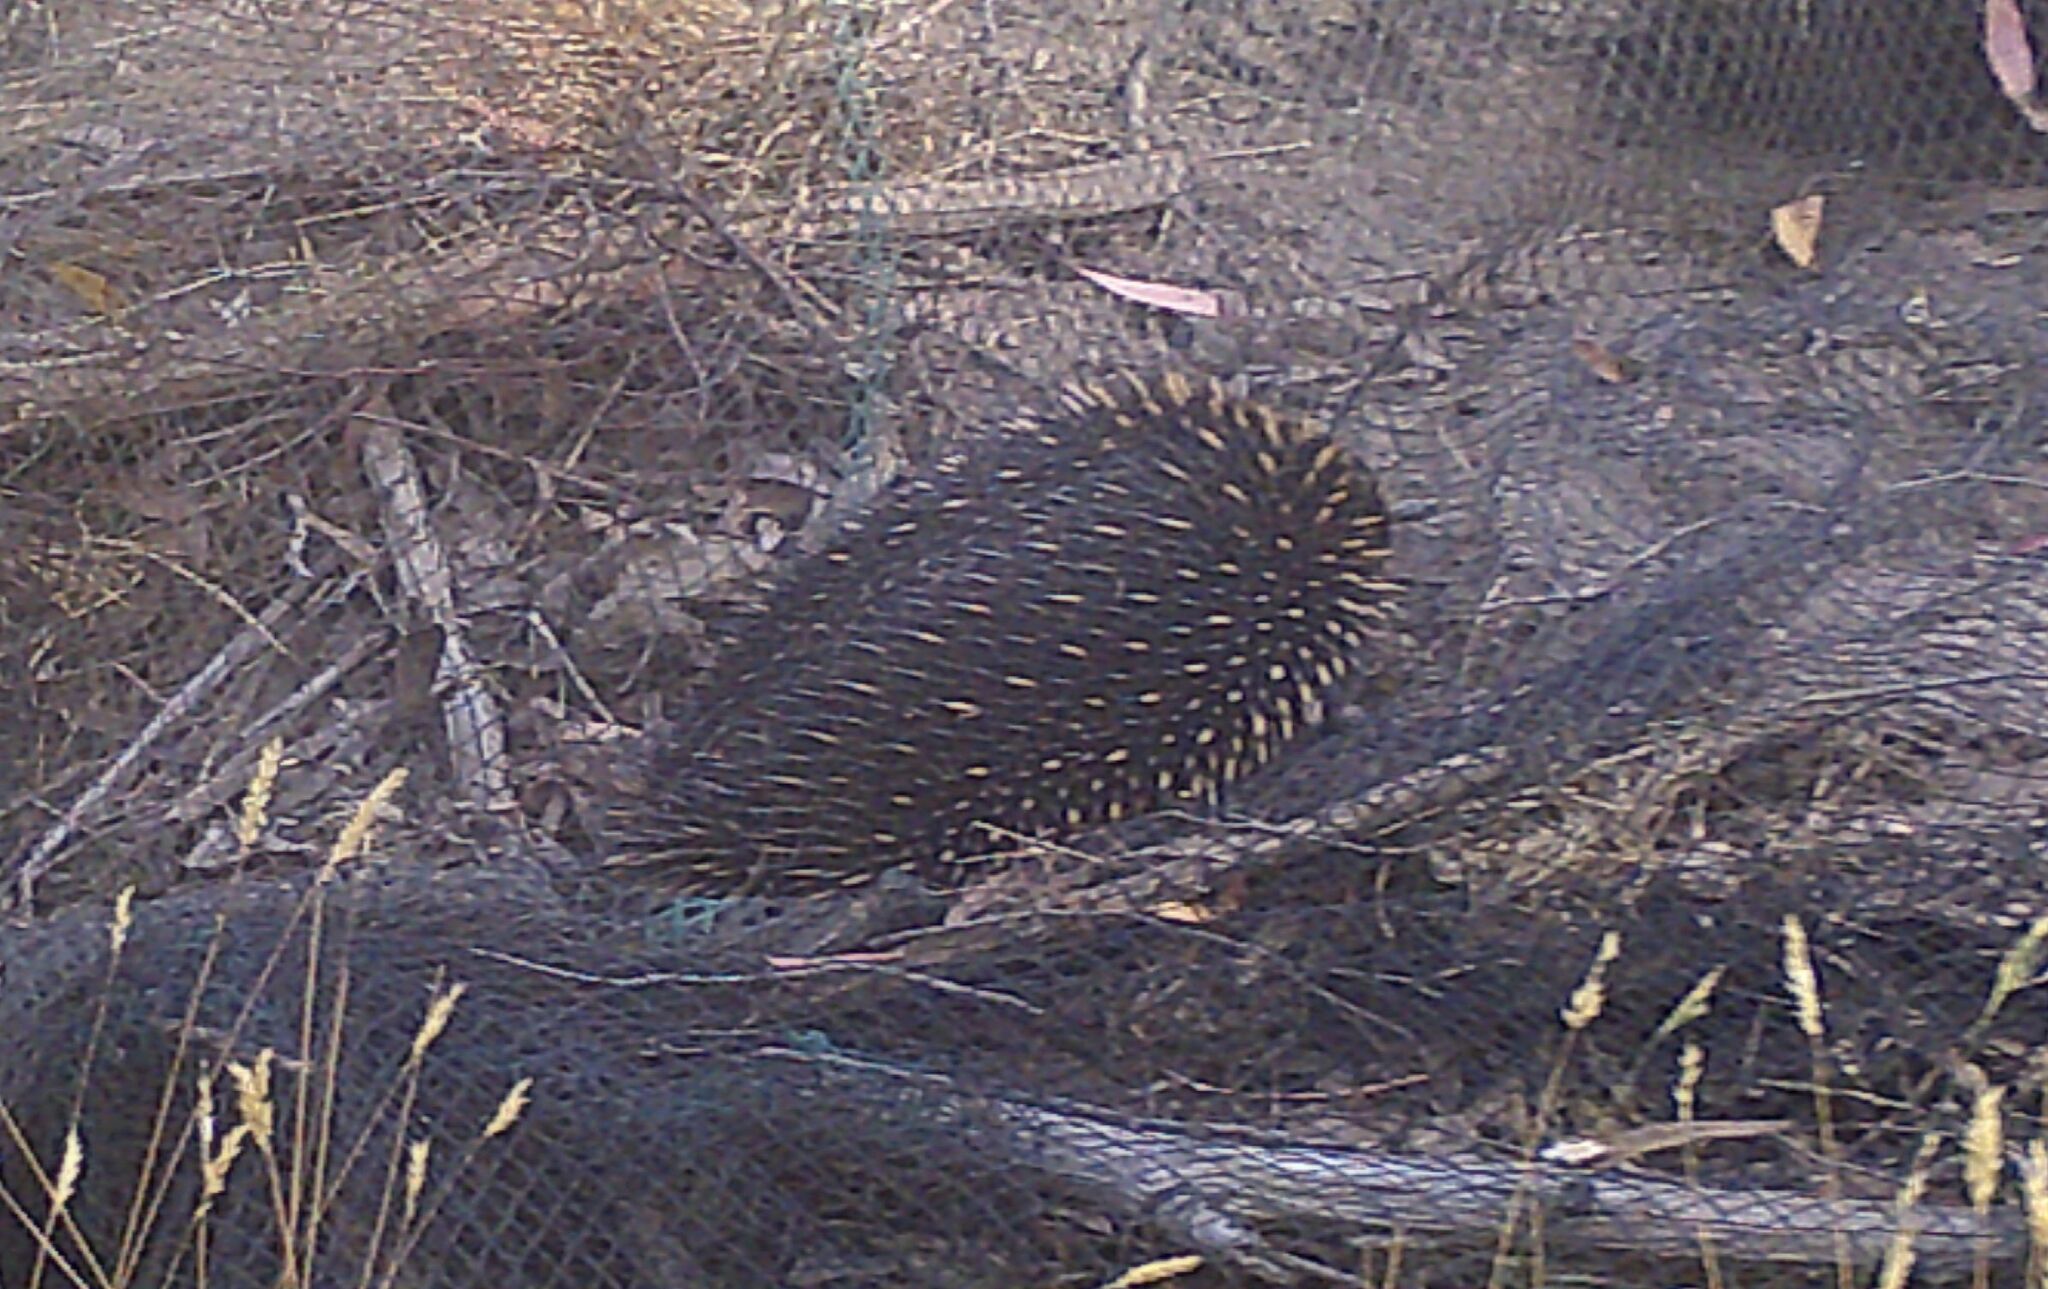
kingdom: Animalia
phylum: Chordata
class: Mammalia
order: Monotremata
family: Tachyglossidae
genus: Tachyglossus
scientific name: Tachyglossus aculeatus
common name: Short-beaked echidna
